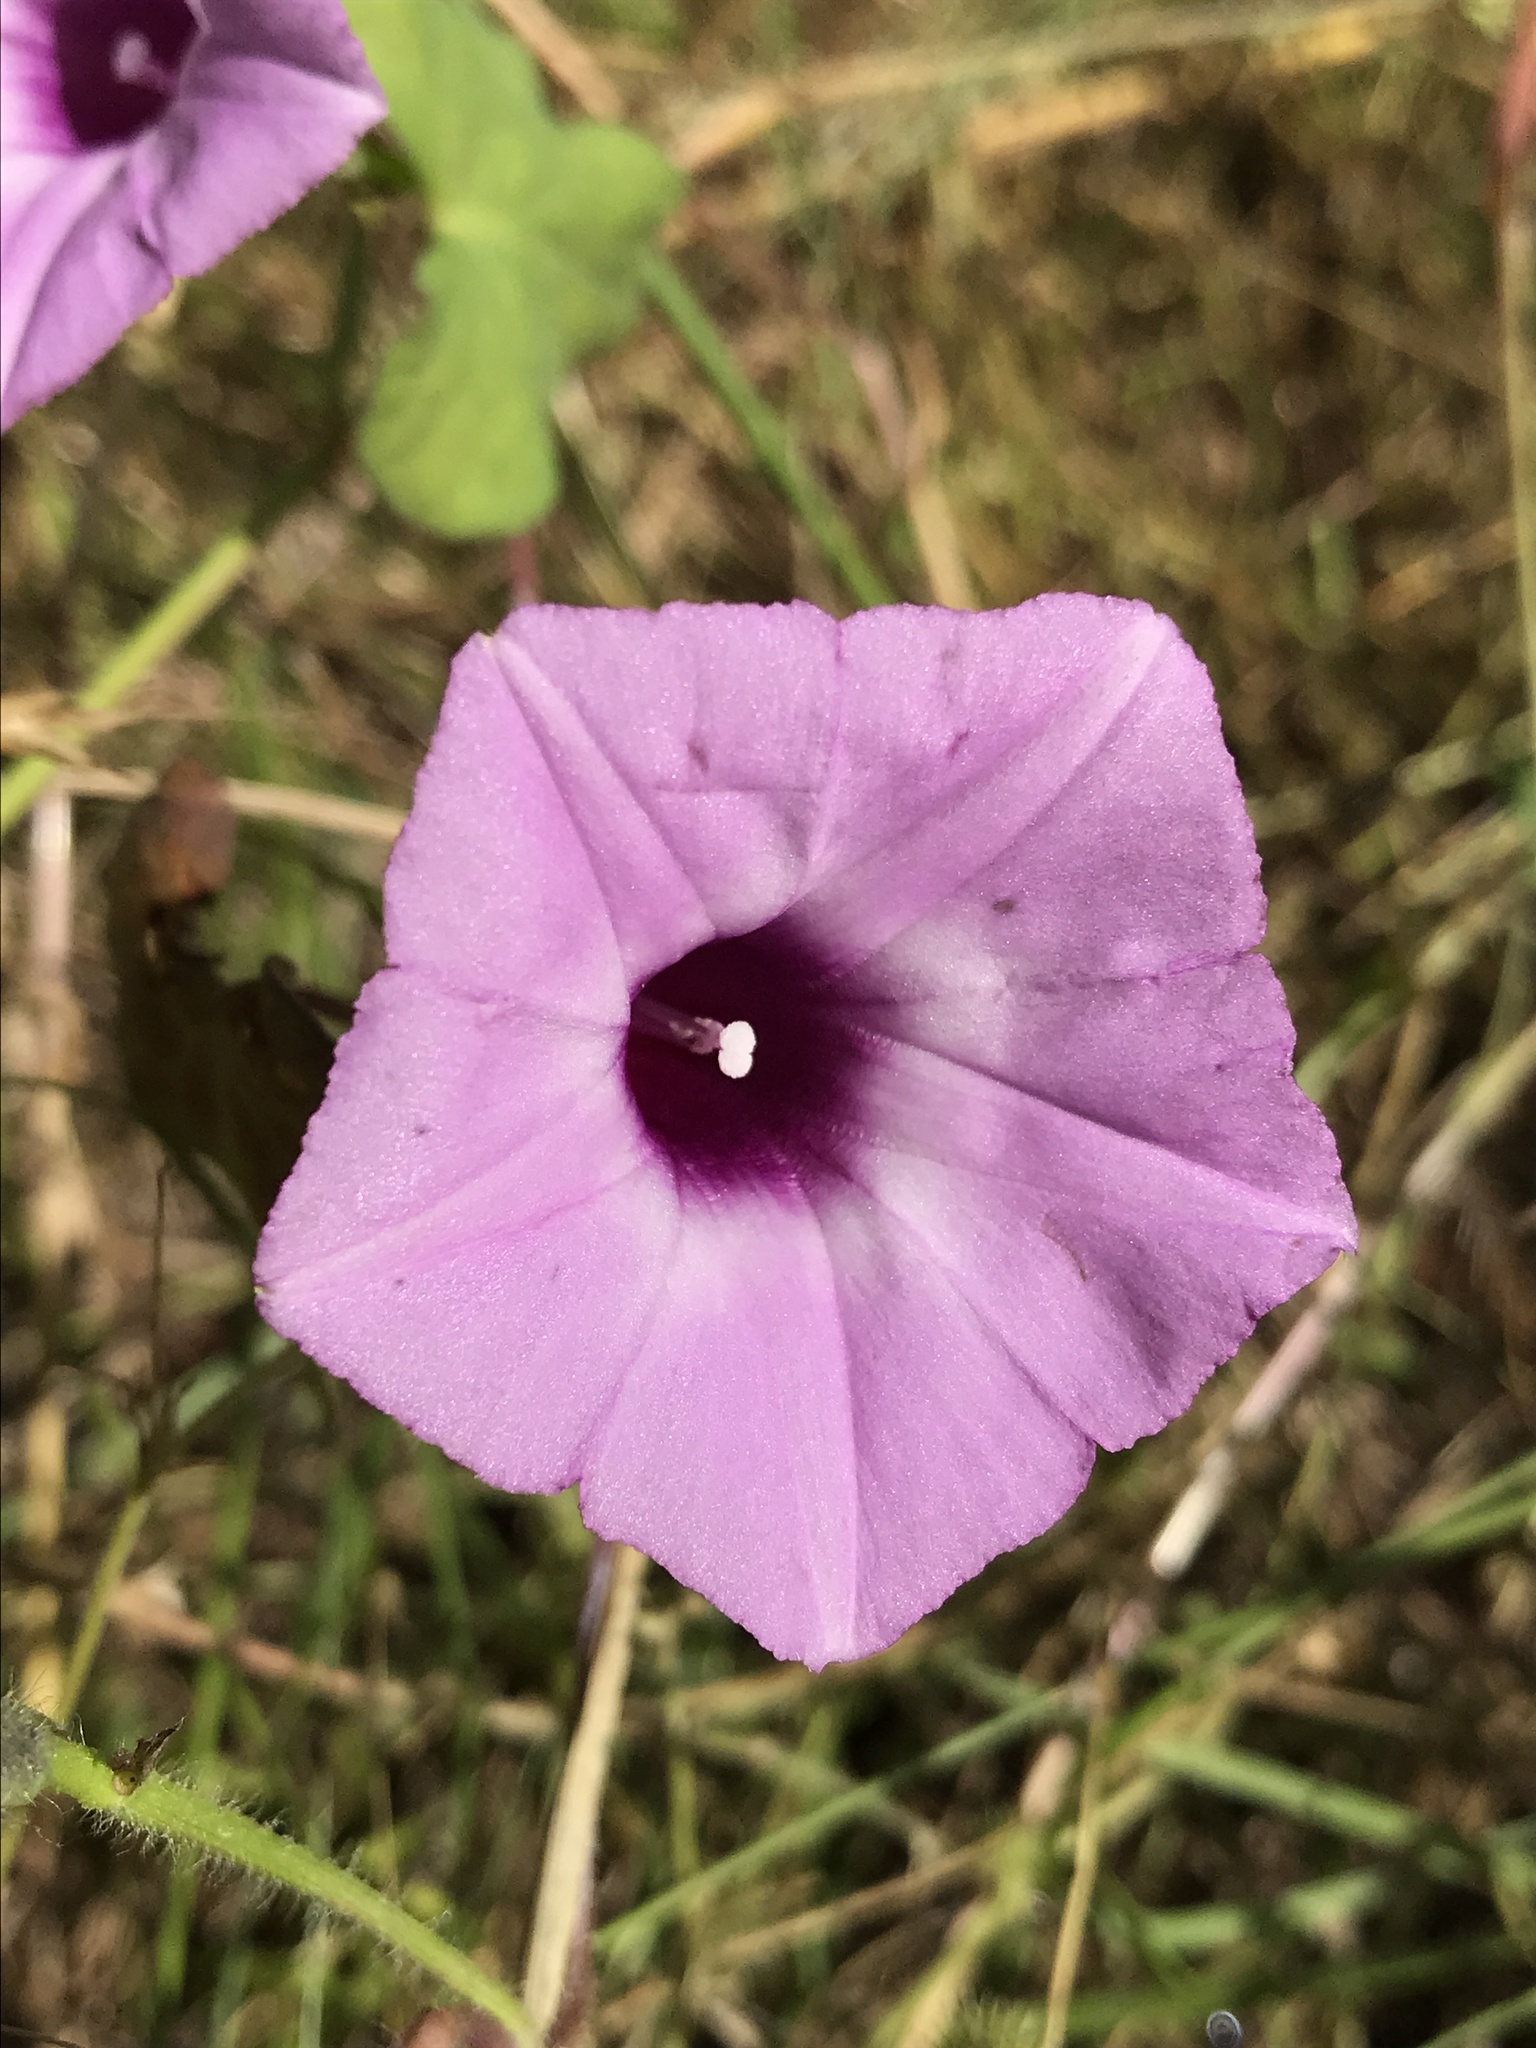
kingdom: Plantae
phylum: Tracheophyta
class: Magnoliopsida
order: Solanales
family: Convolvulaceae
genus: Ipomoea
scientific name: Ipomoea cordatotriloba
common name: Cotton morning glory
